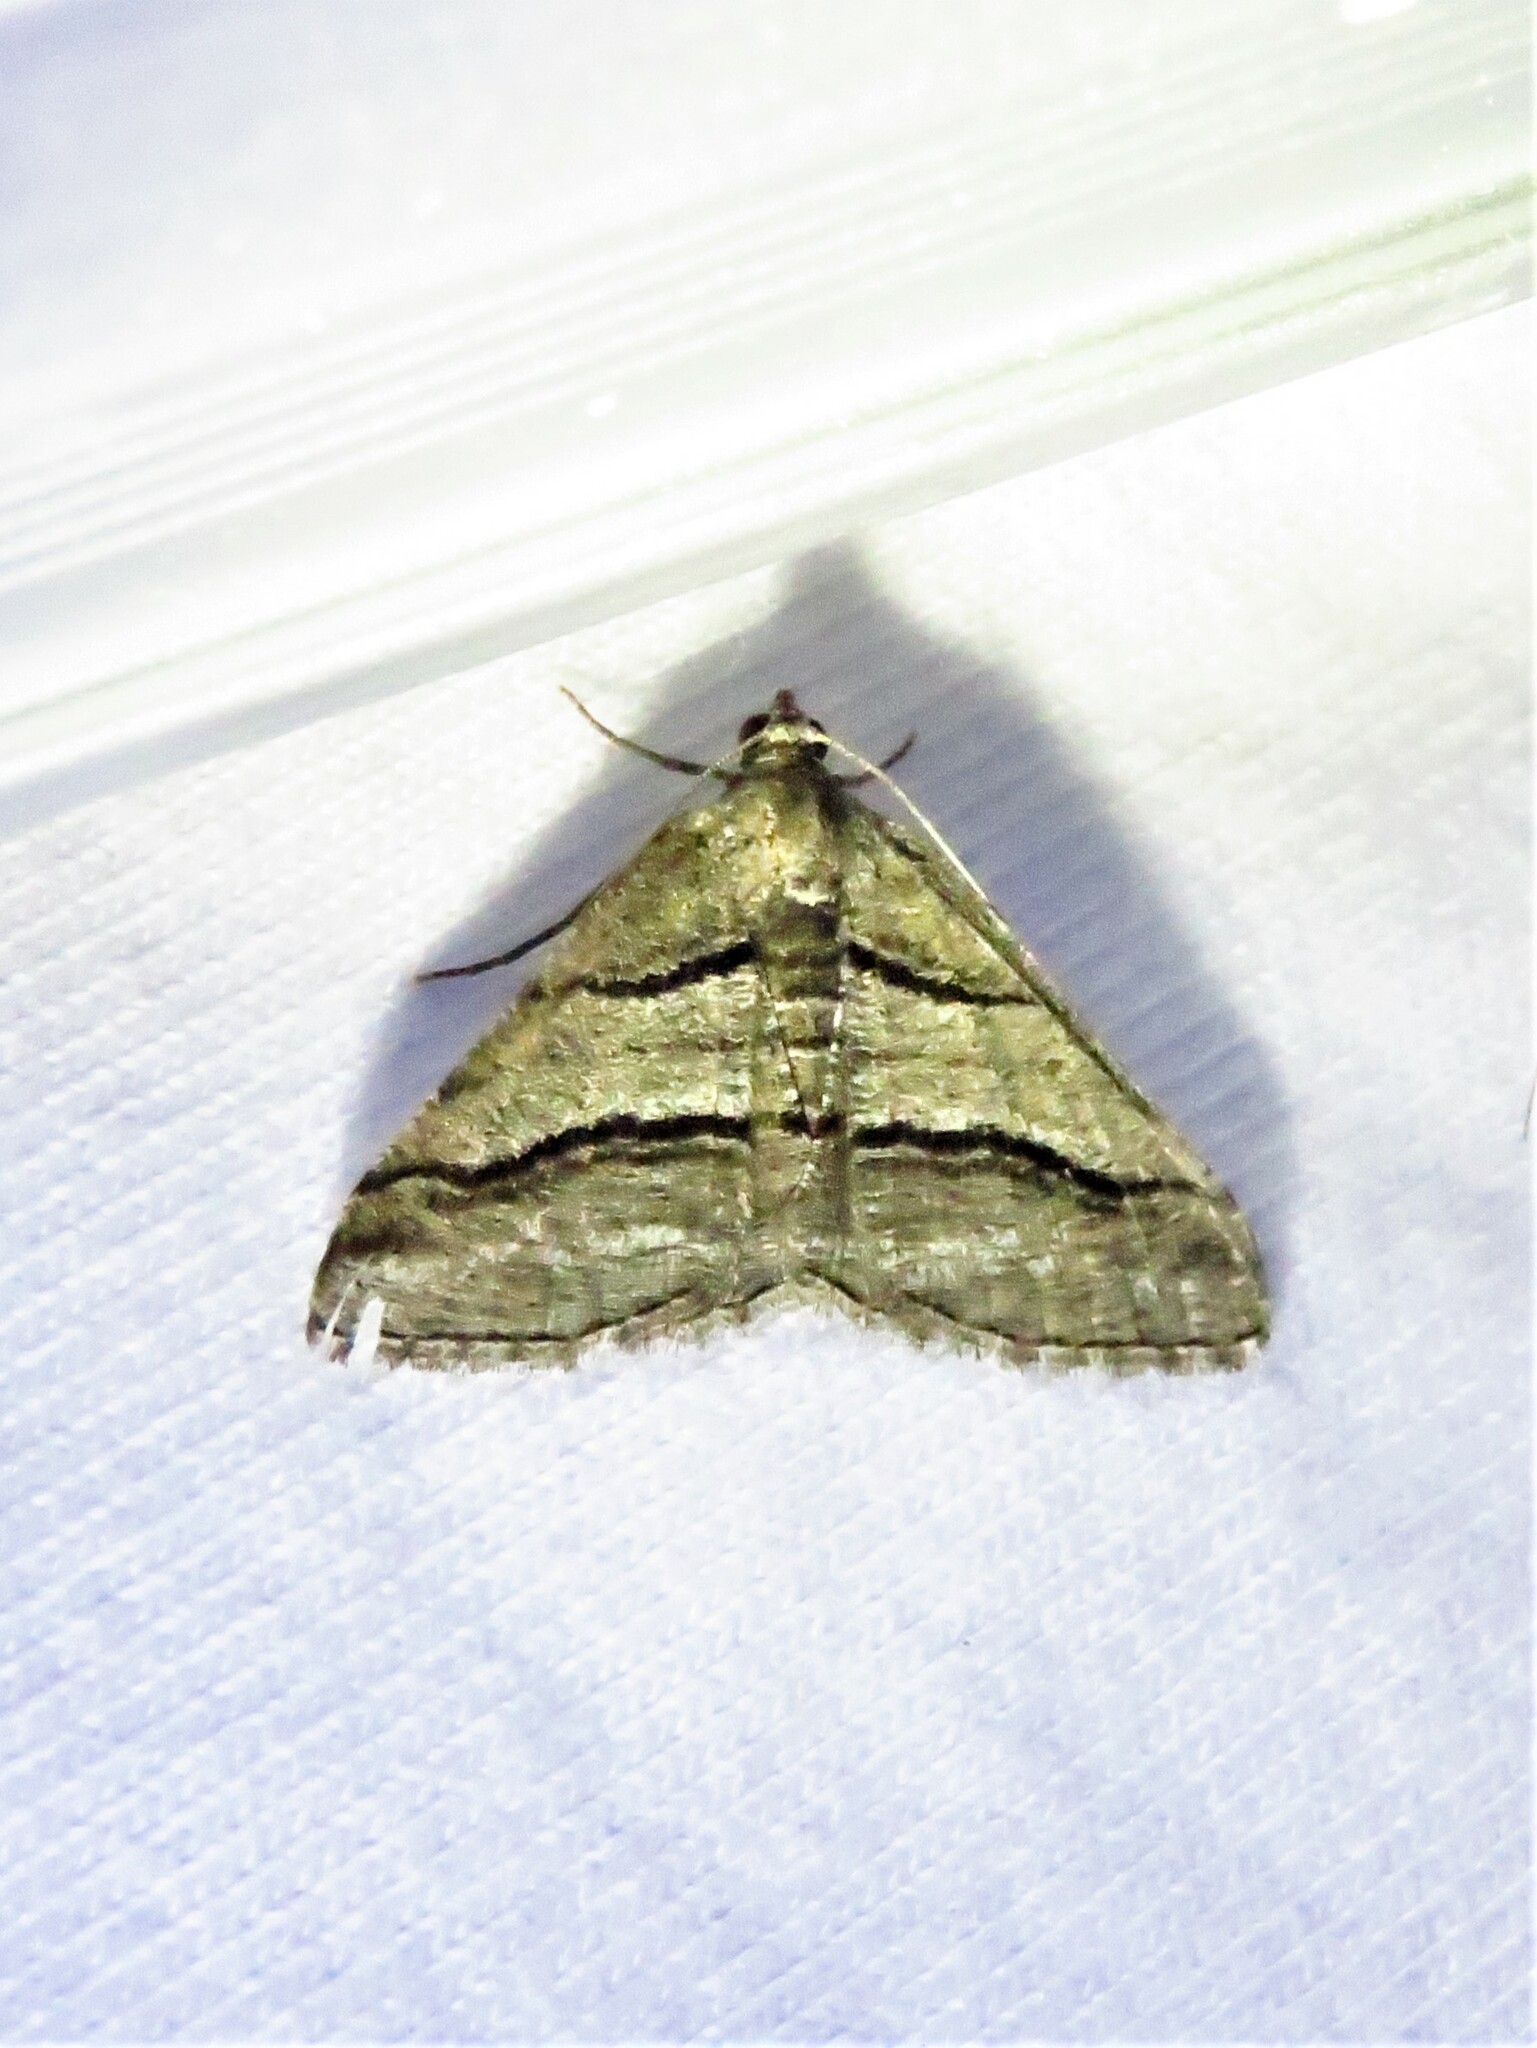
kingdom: Animalia
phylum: Arthropoda
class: Insecta
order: Lepidoptera
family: Geometridae
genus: Digrammia
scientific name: Digrammia atrofasciata
